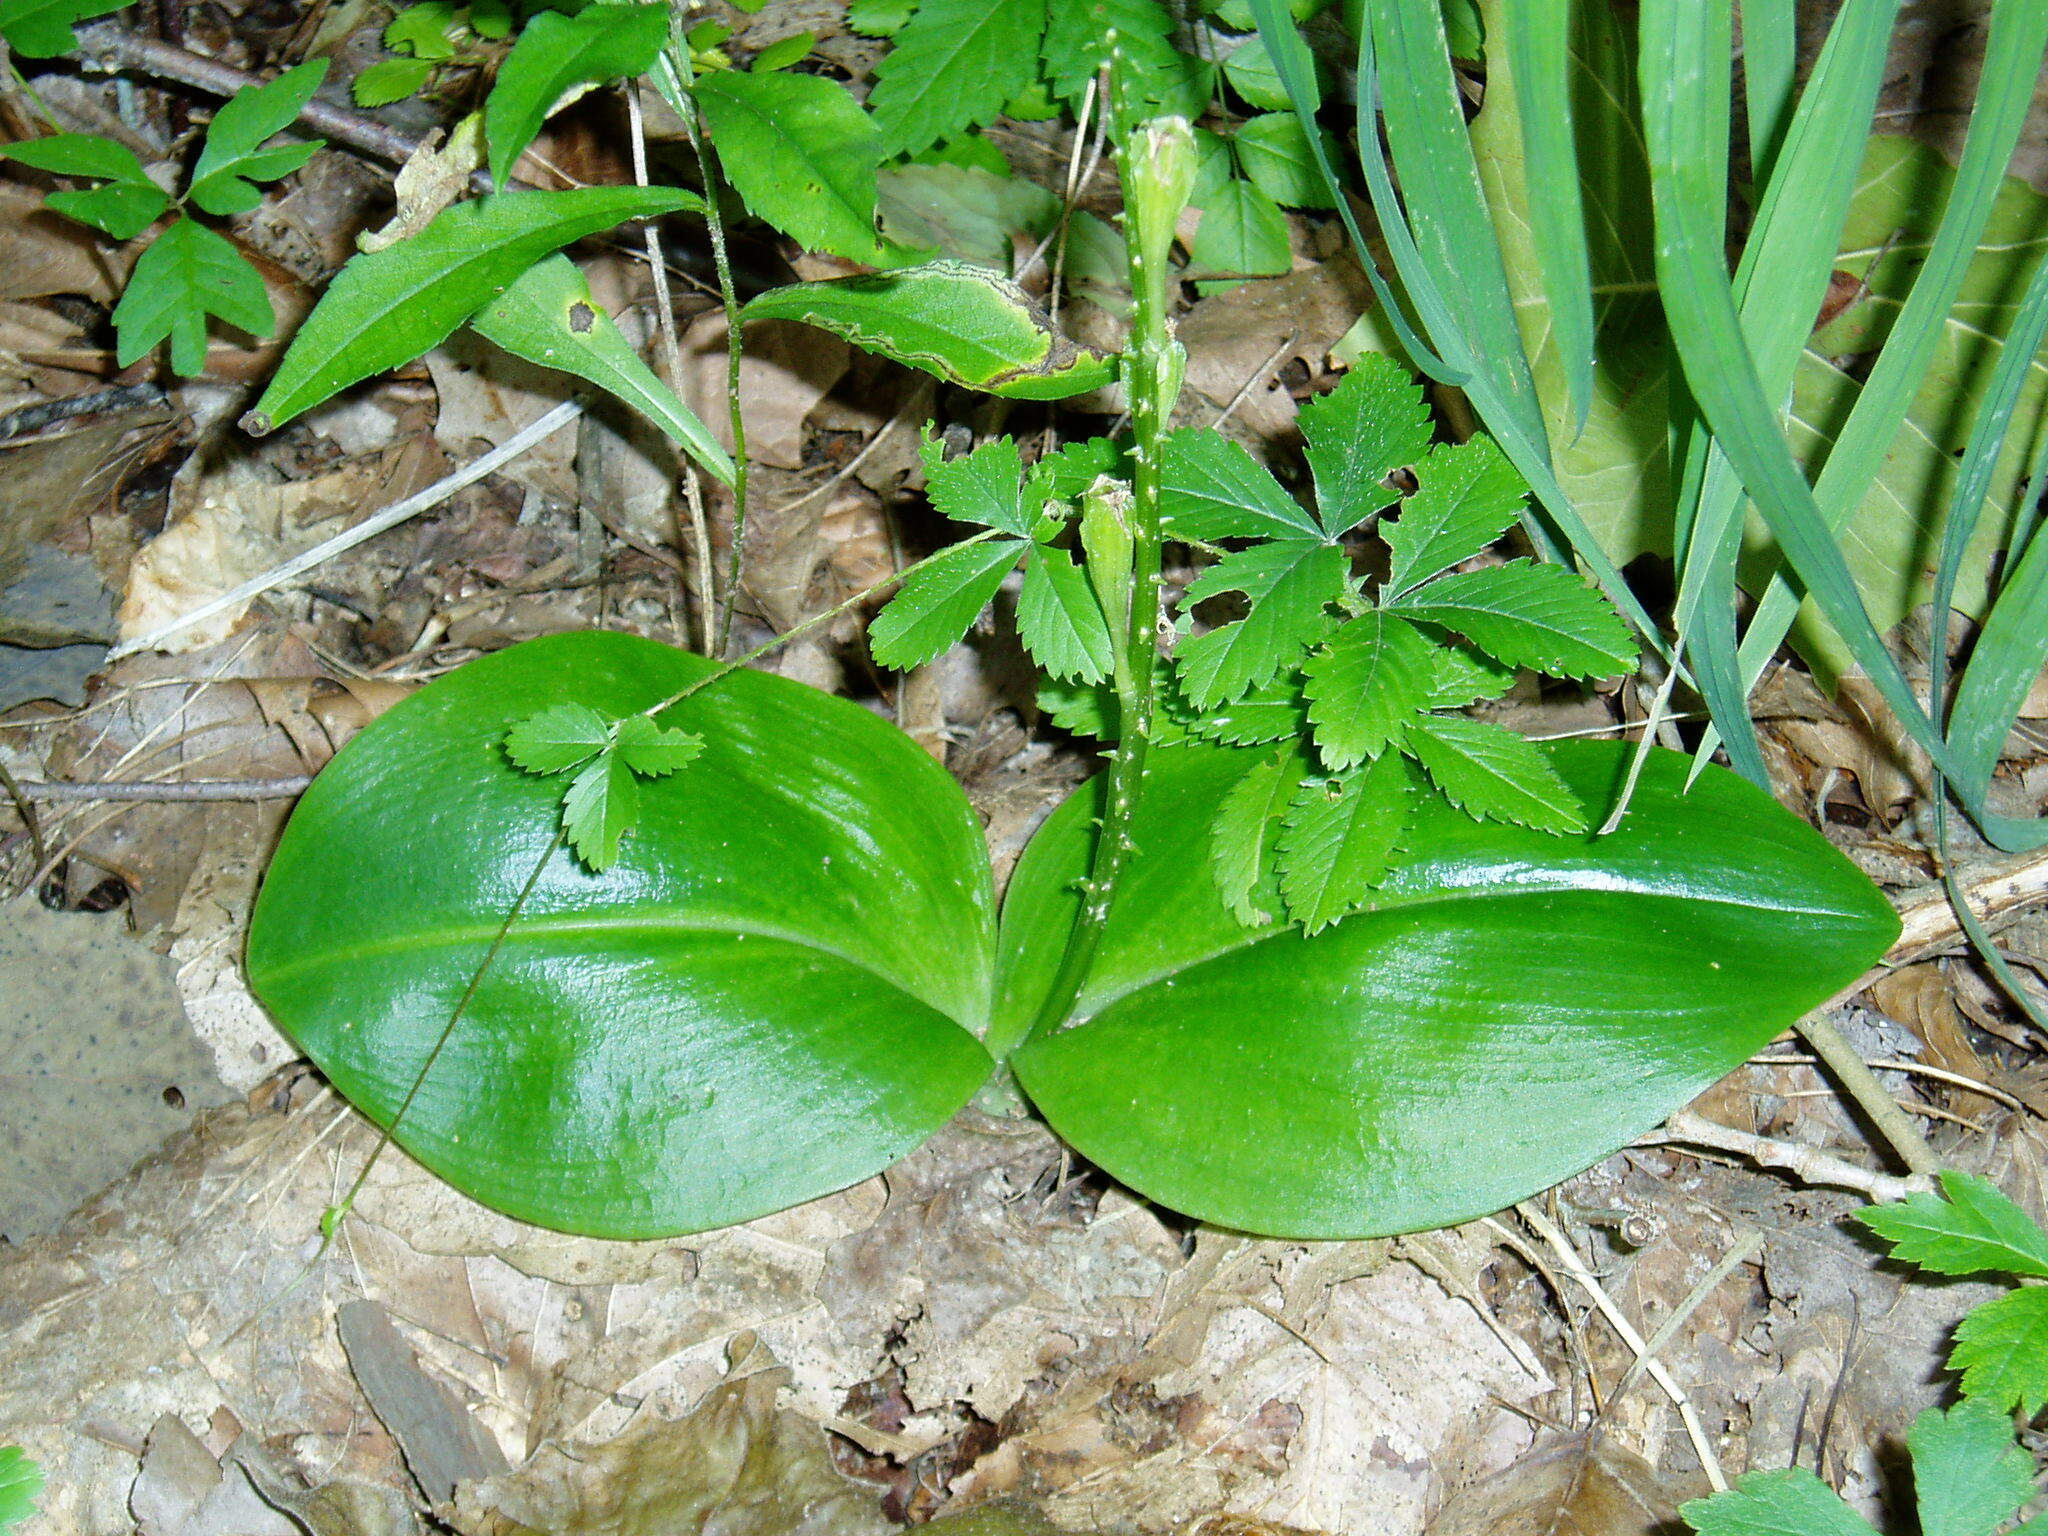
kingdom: Plantae
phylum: Tracheophyta
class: Liliopsida
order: Asparagales
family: Orchidaceae
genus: Liparis
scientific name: Liparis liliifolia
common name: Brown wide-lip orchid
